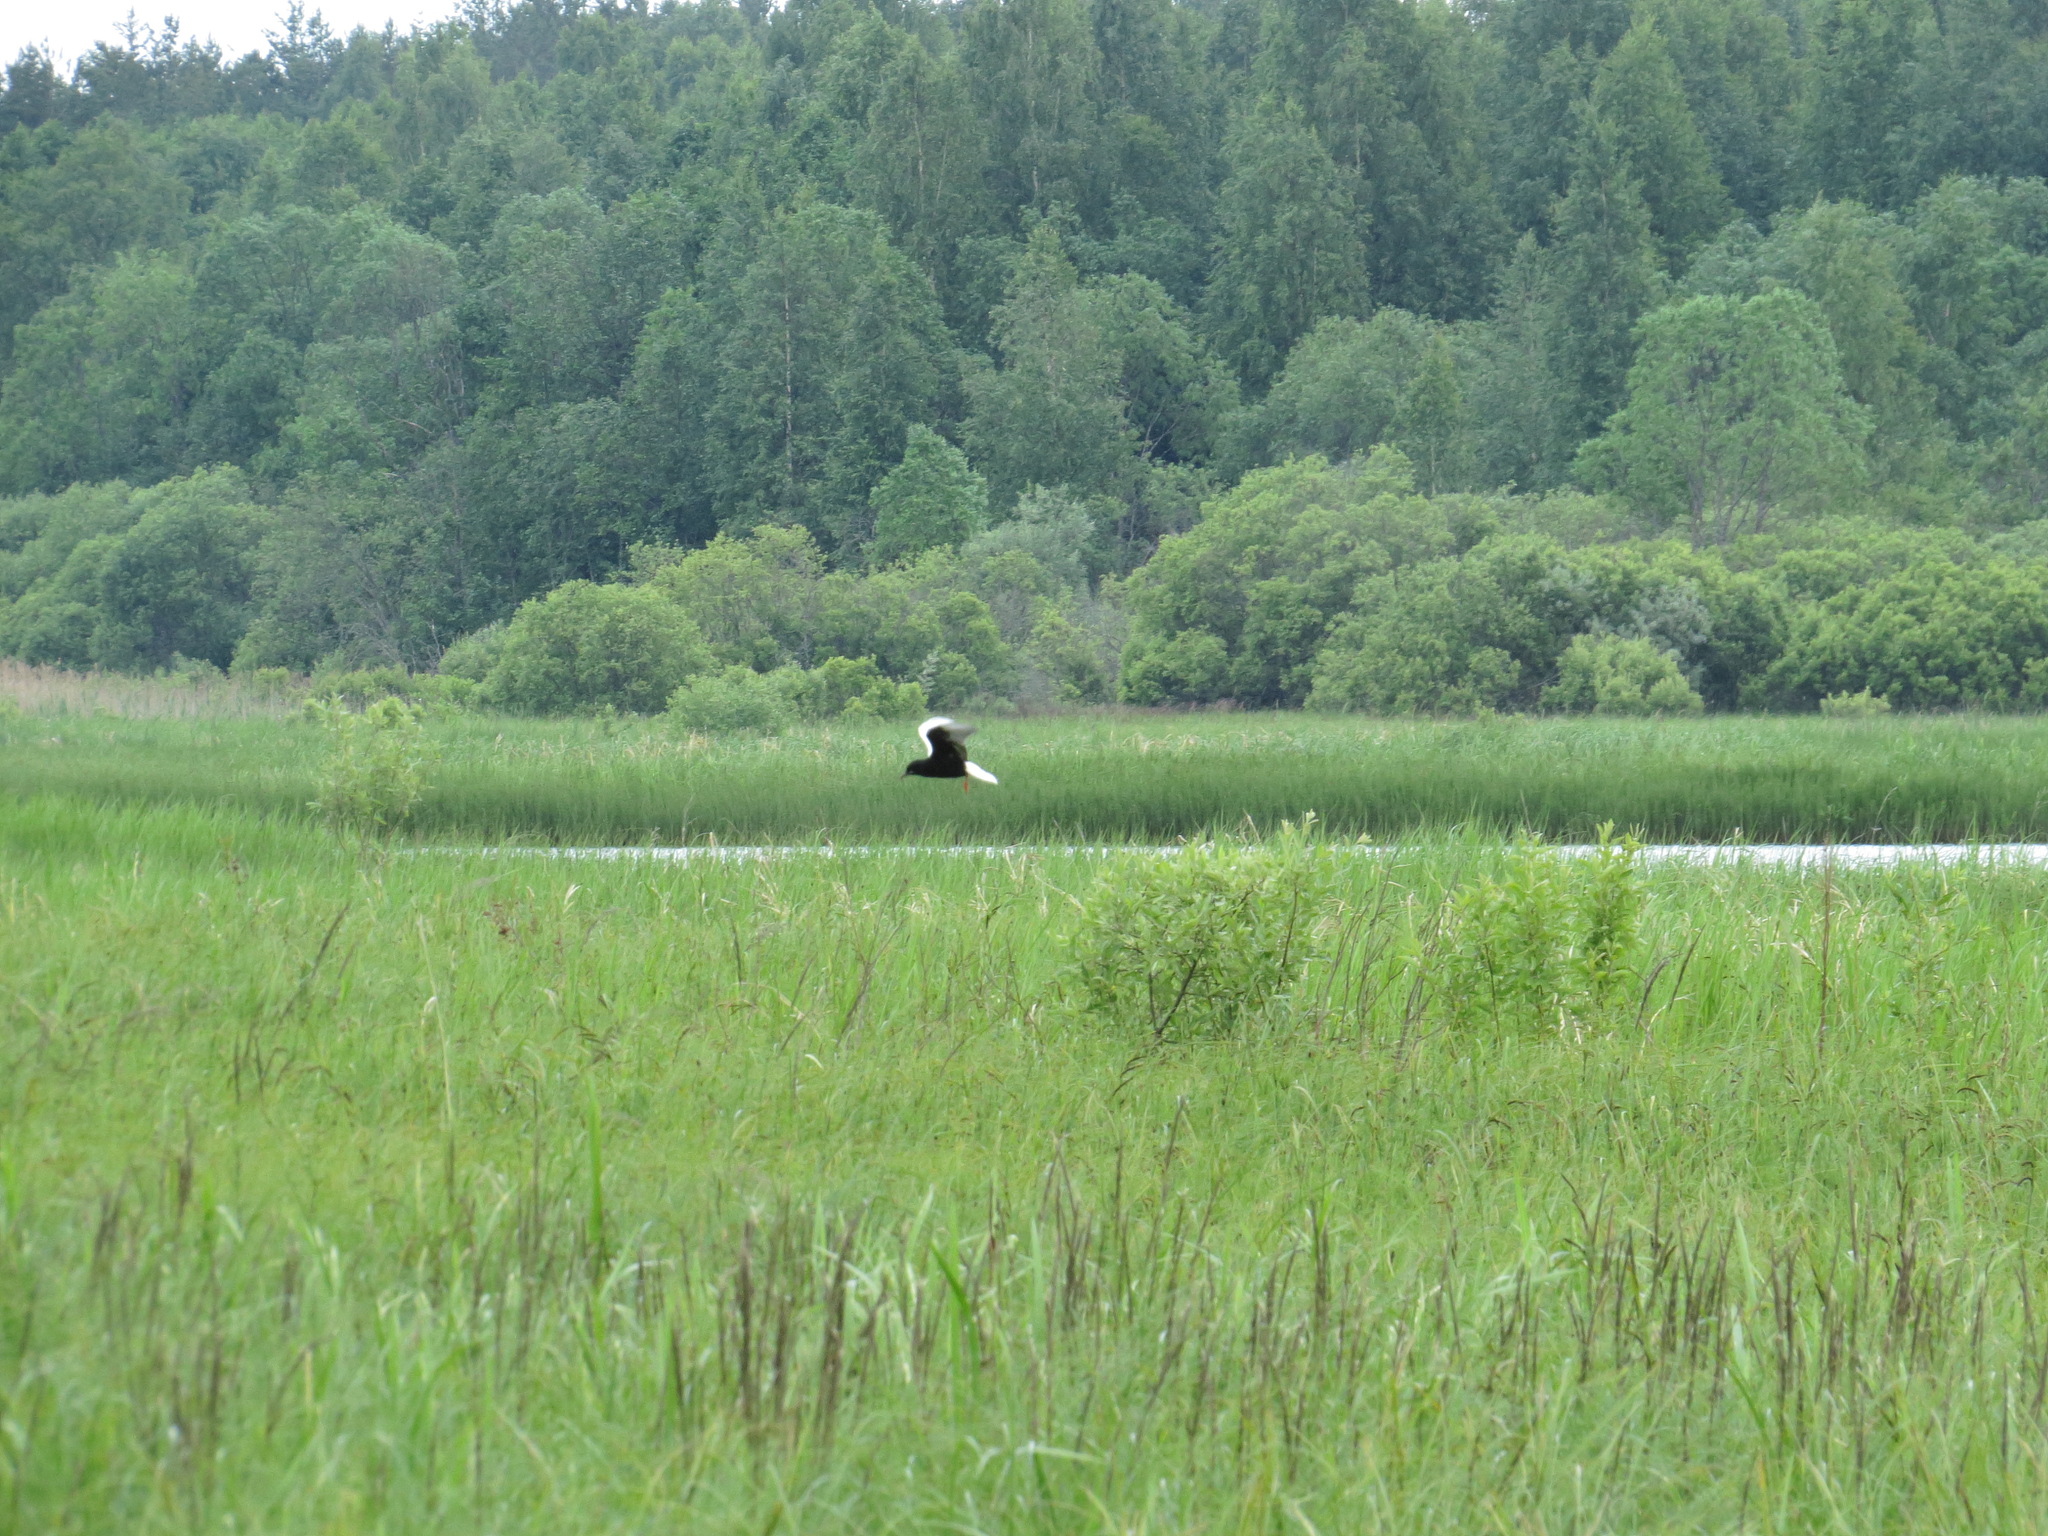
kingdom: Animalia
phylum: Chordata
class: Aves
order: Charadriiformes
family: Laridae
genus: Chlidonias
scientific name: Chlidonias leucopterus
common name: White-winged tern
